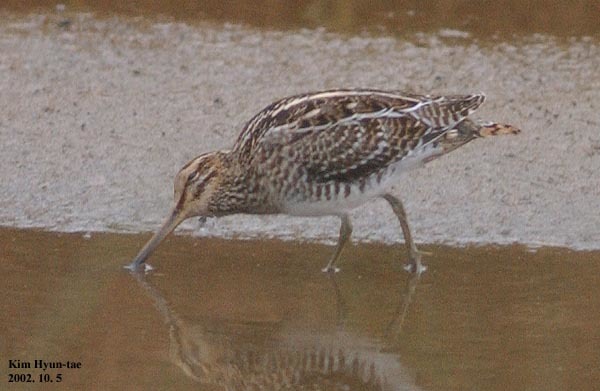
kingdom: Animalia
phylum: Chordata
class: Aves
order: Charadriiformes
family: Scolopacidae
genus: Gallinago
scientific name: Gallinago hardwickii
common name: Latham's snipe
